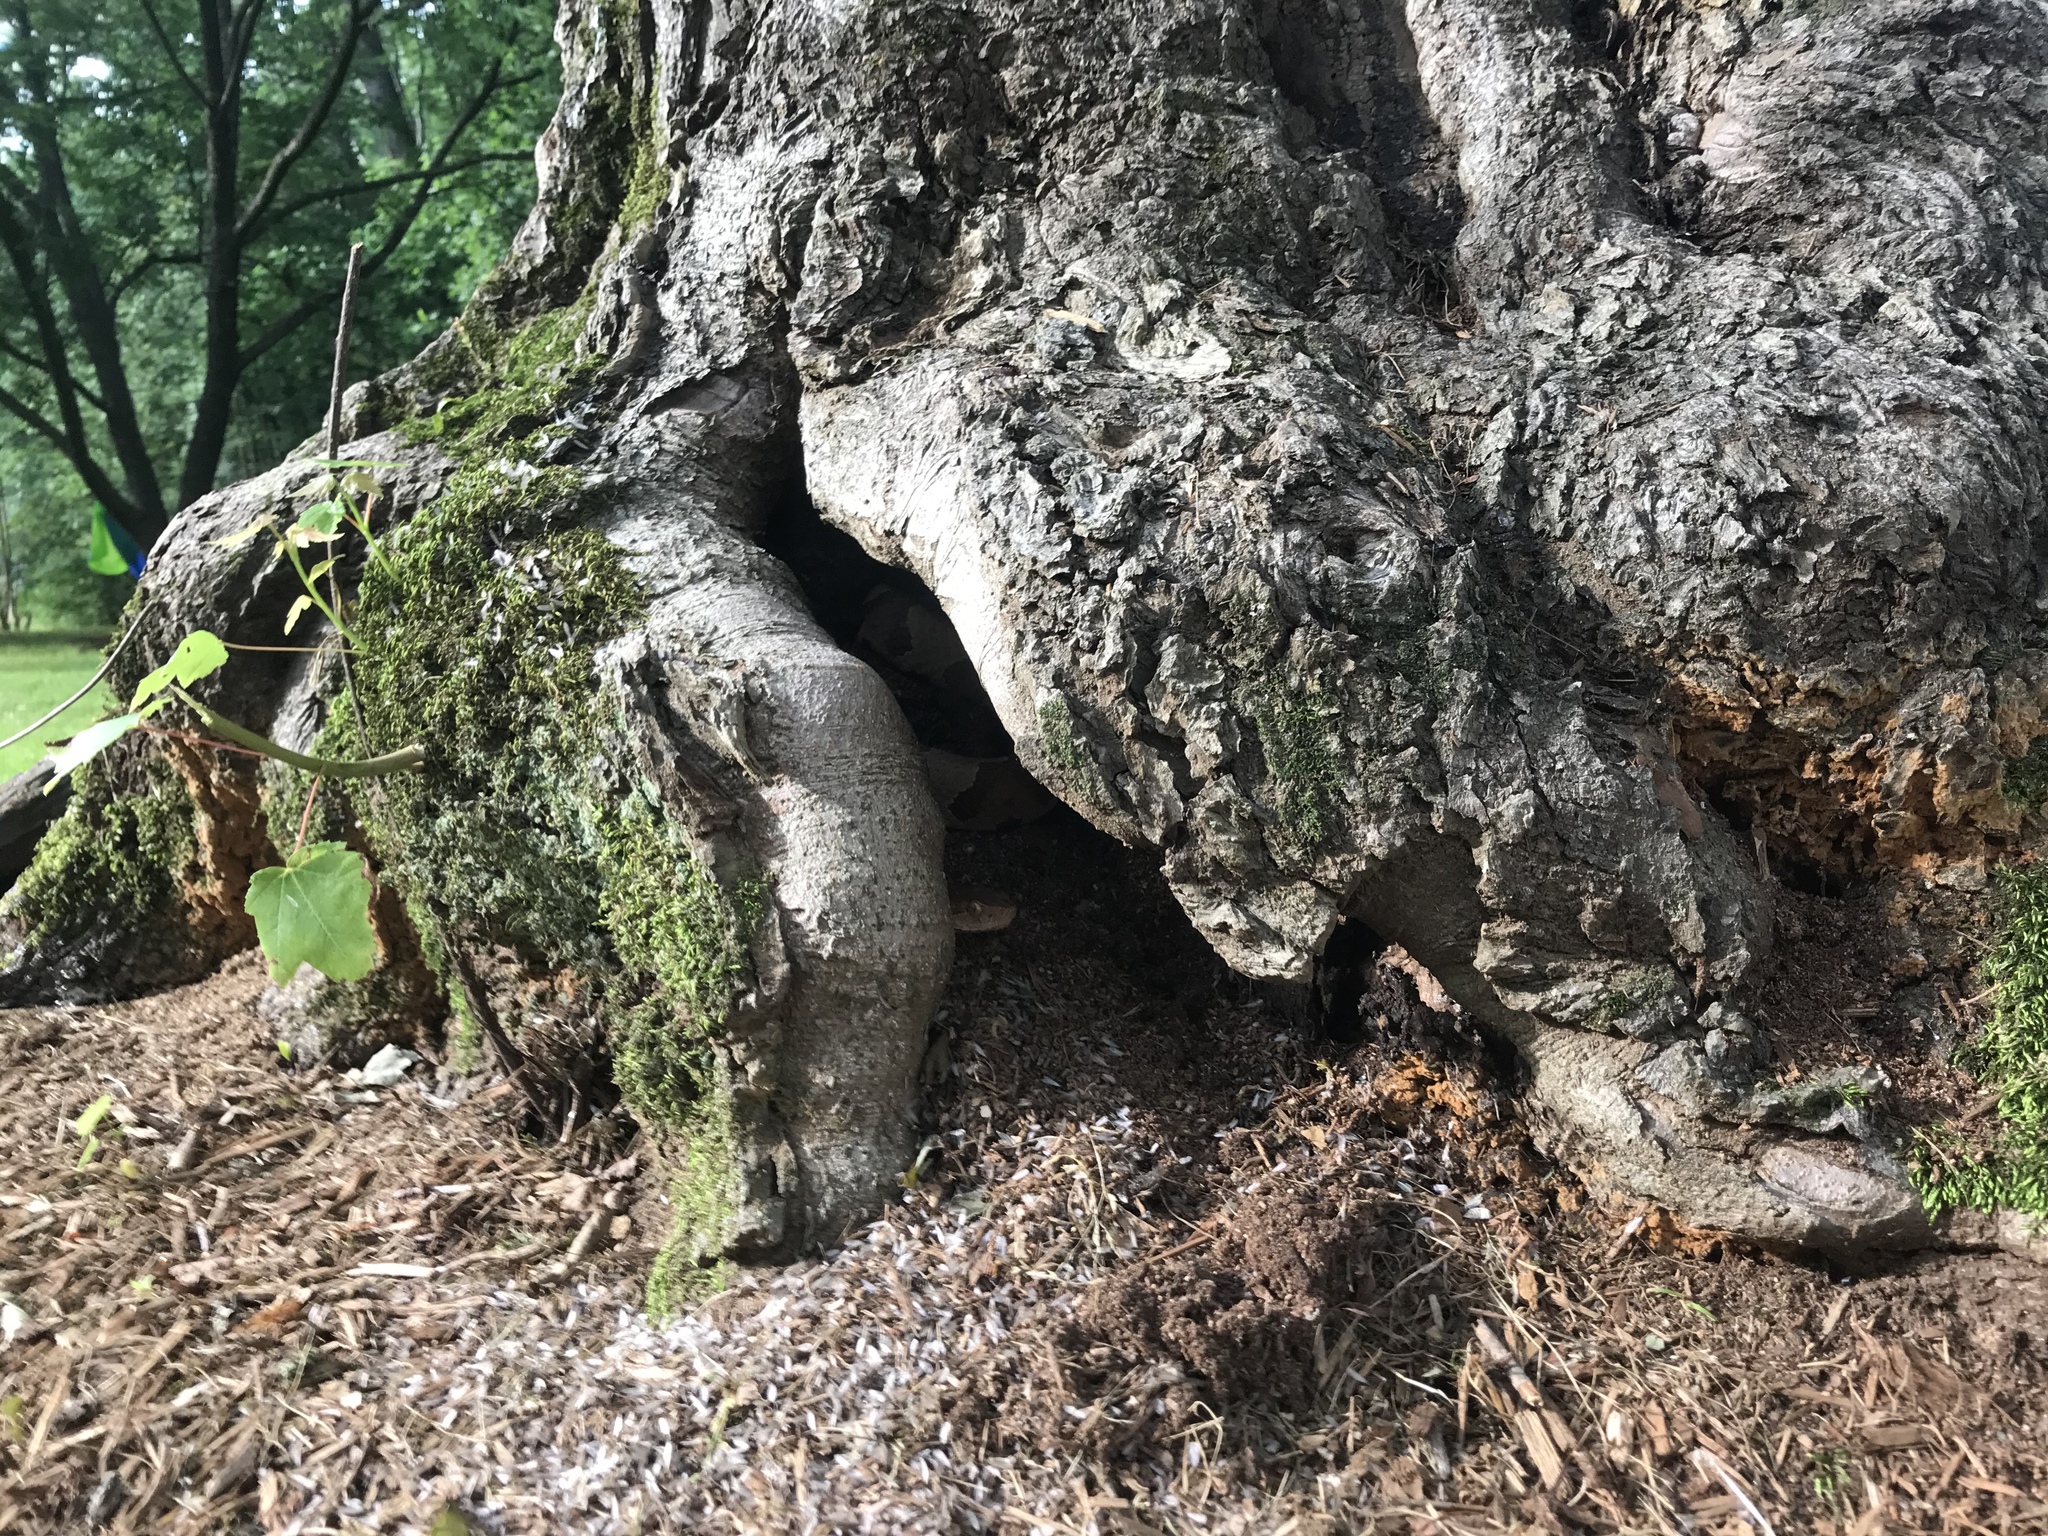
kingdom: Animalia
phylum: Chordata
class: Squamata
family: Viperidae
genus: Agkistrodon
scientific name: Agkistrodon contortrix
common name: Northern copperhead
